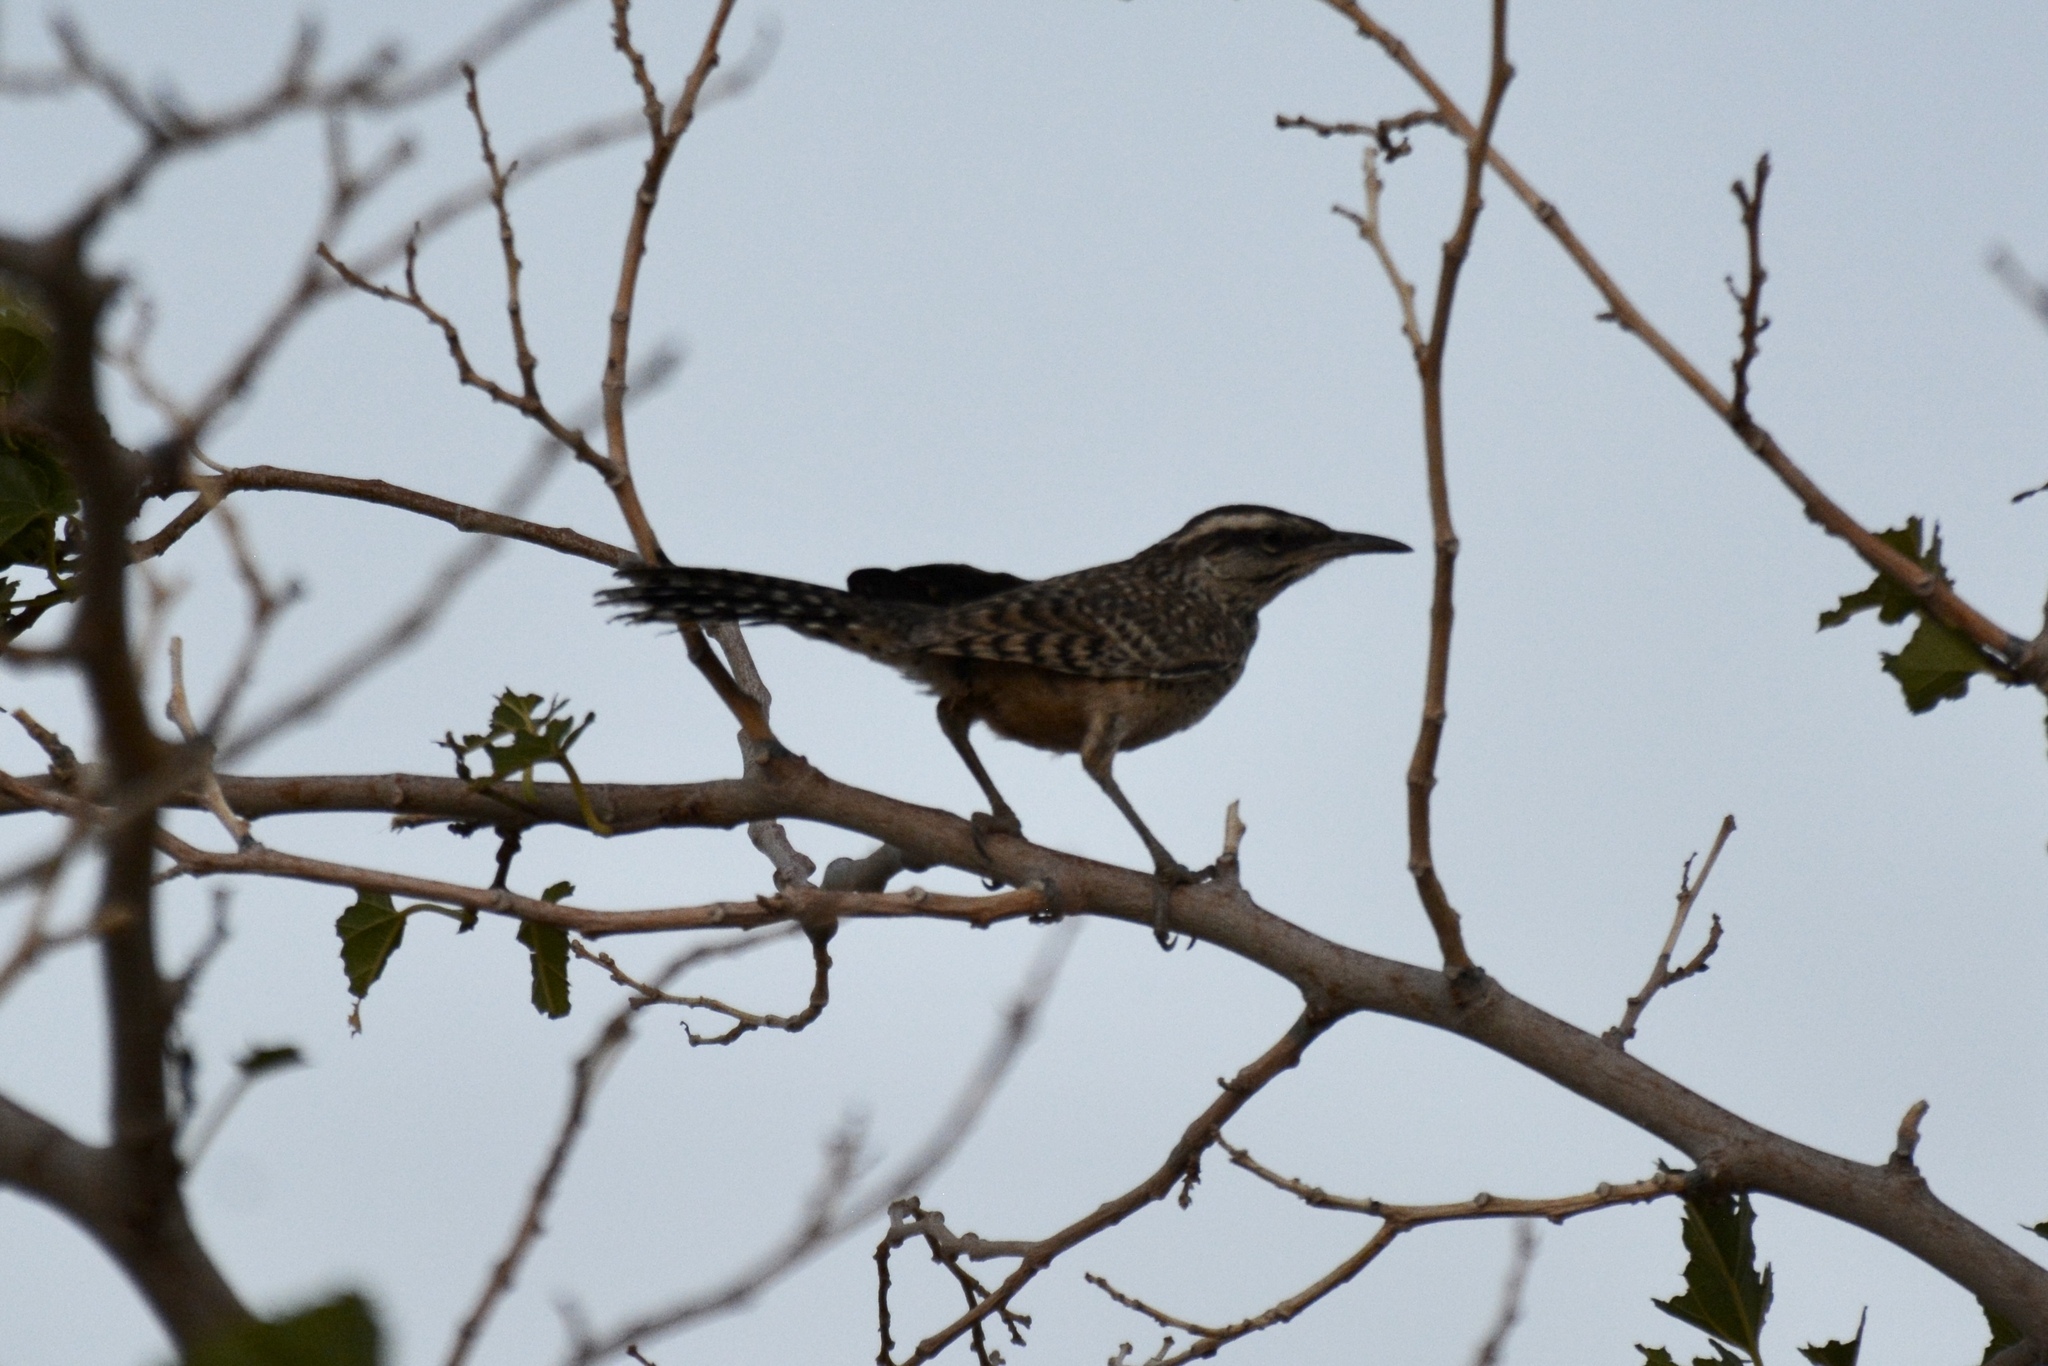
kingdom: Animalia
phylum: Chordata
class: Aves
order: Passeriformes
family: Troglodytidae
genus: Campylorhynchus
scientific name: Campylorhynchus brunneicapillus
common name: Cactus wren
